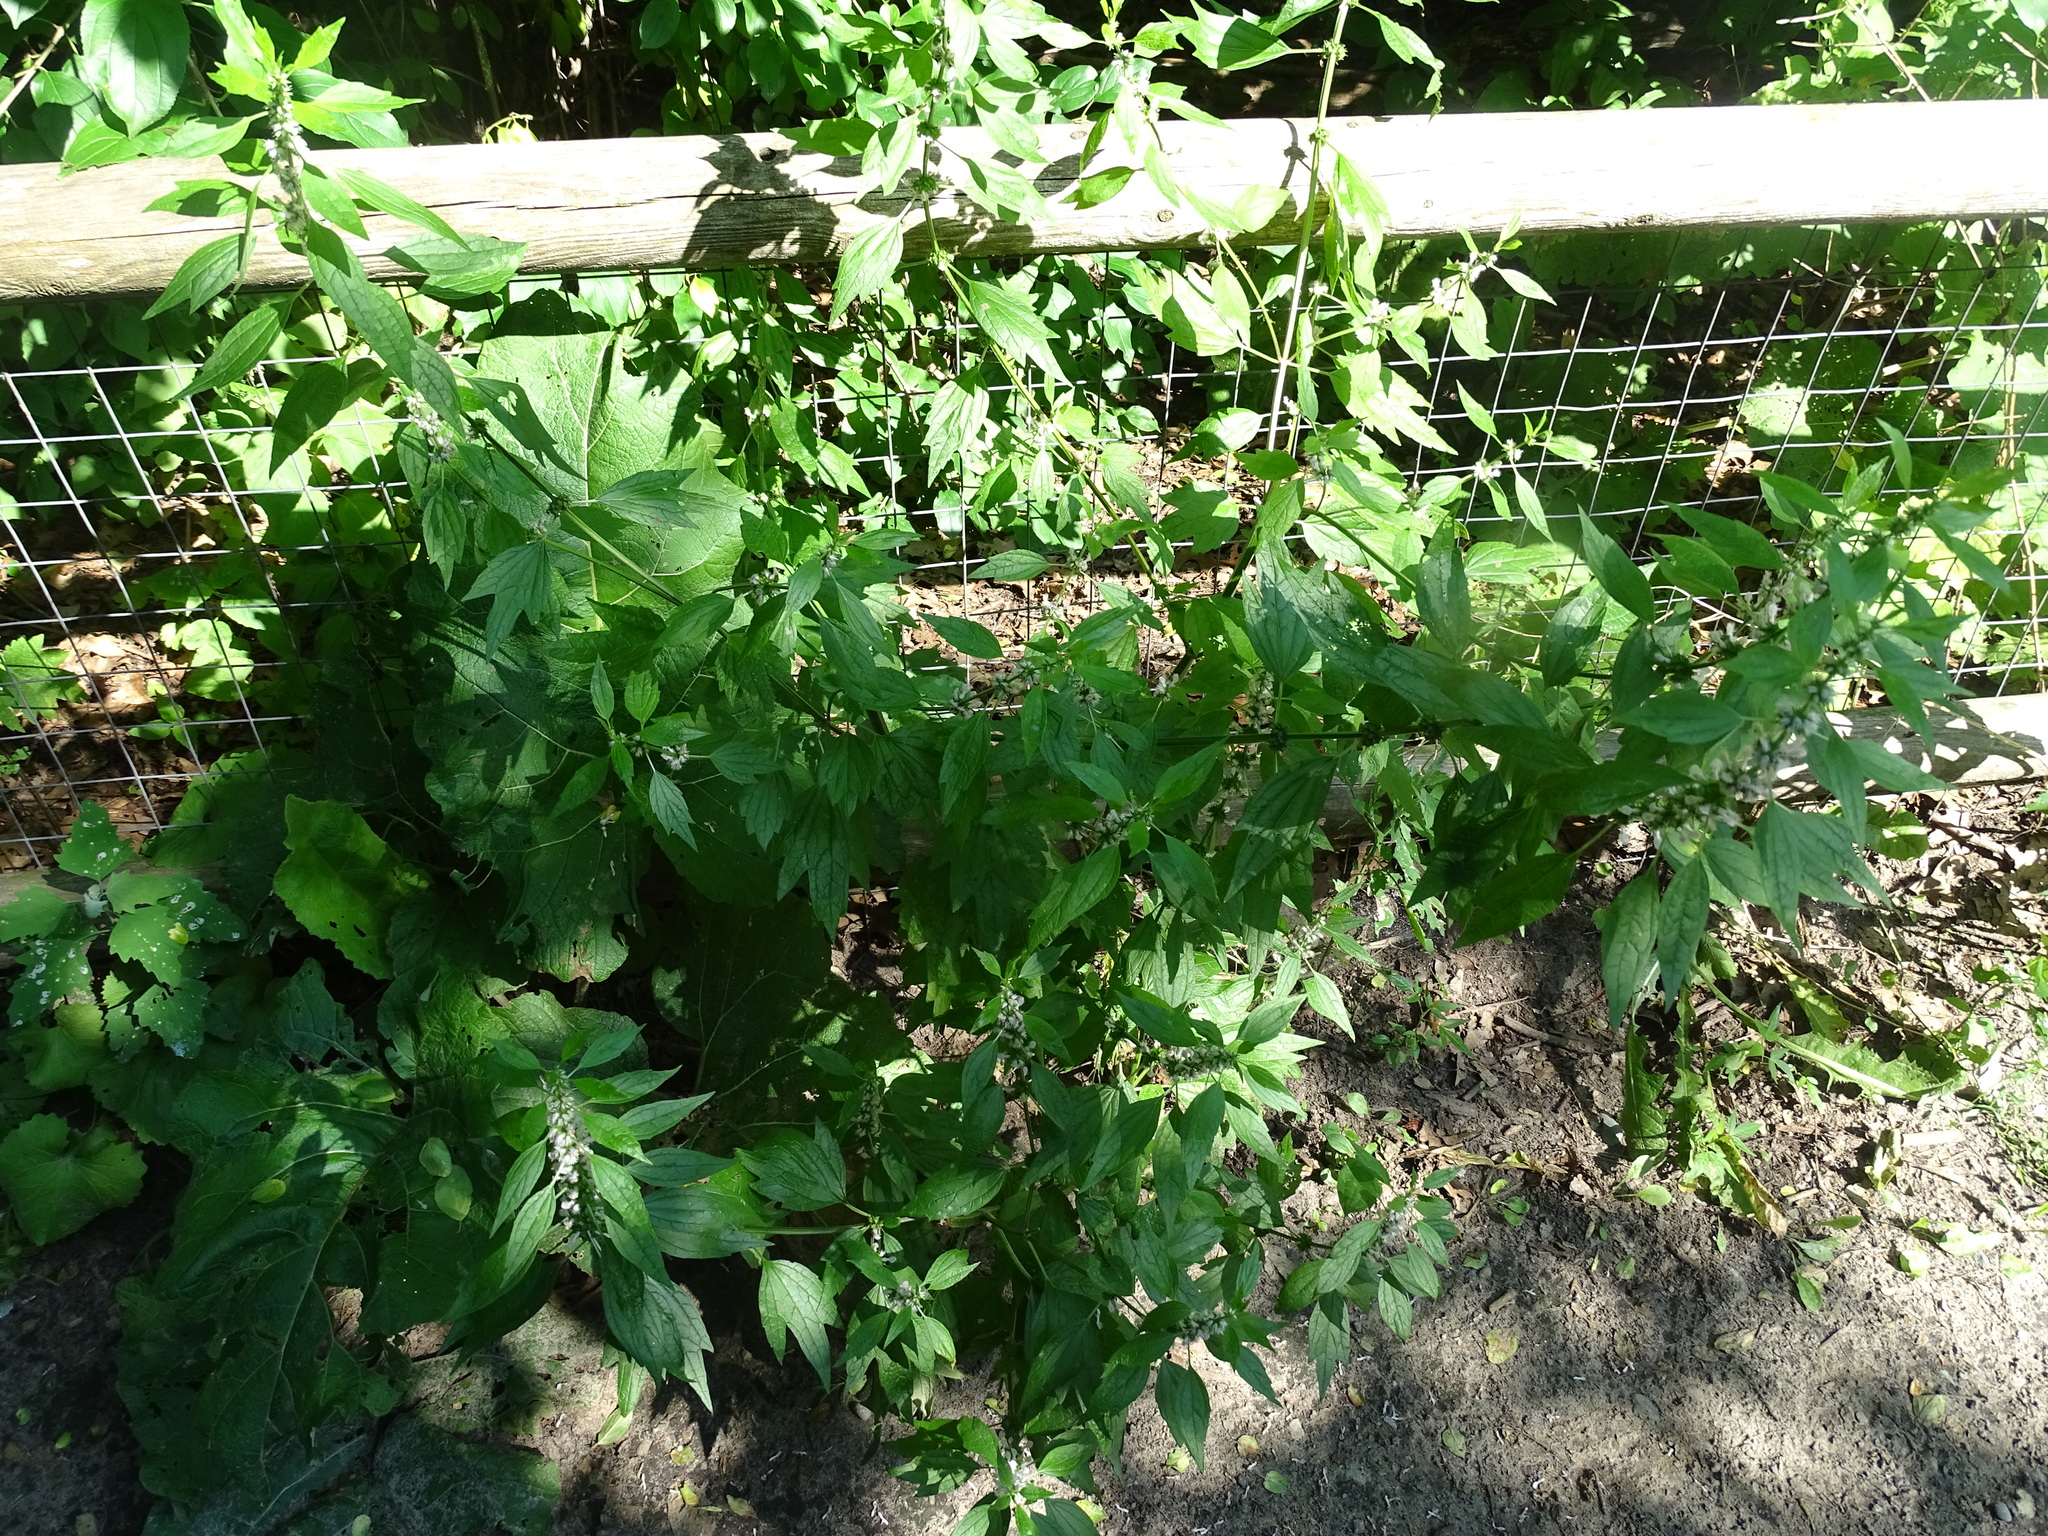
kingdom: Plantae
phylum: Tracheophyta
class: Magnoliopsida
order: Lamiales
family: Lamiaceae
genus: Leonurus
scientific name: Leonurus cardiaca
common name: Motherwort
